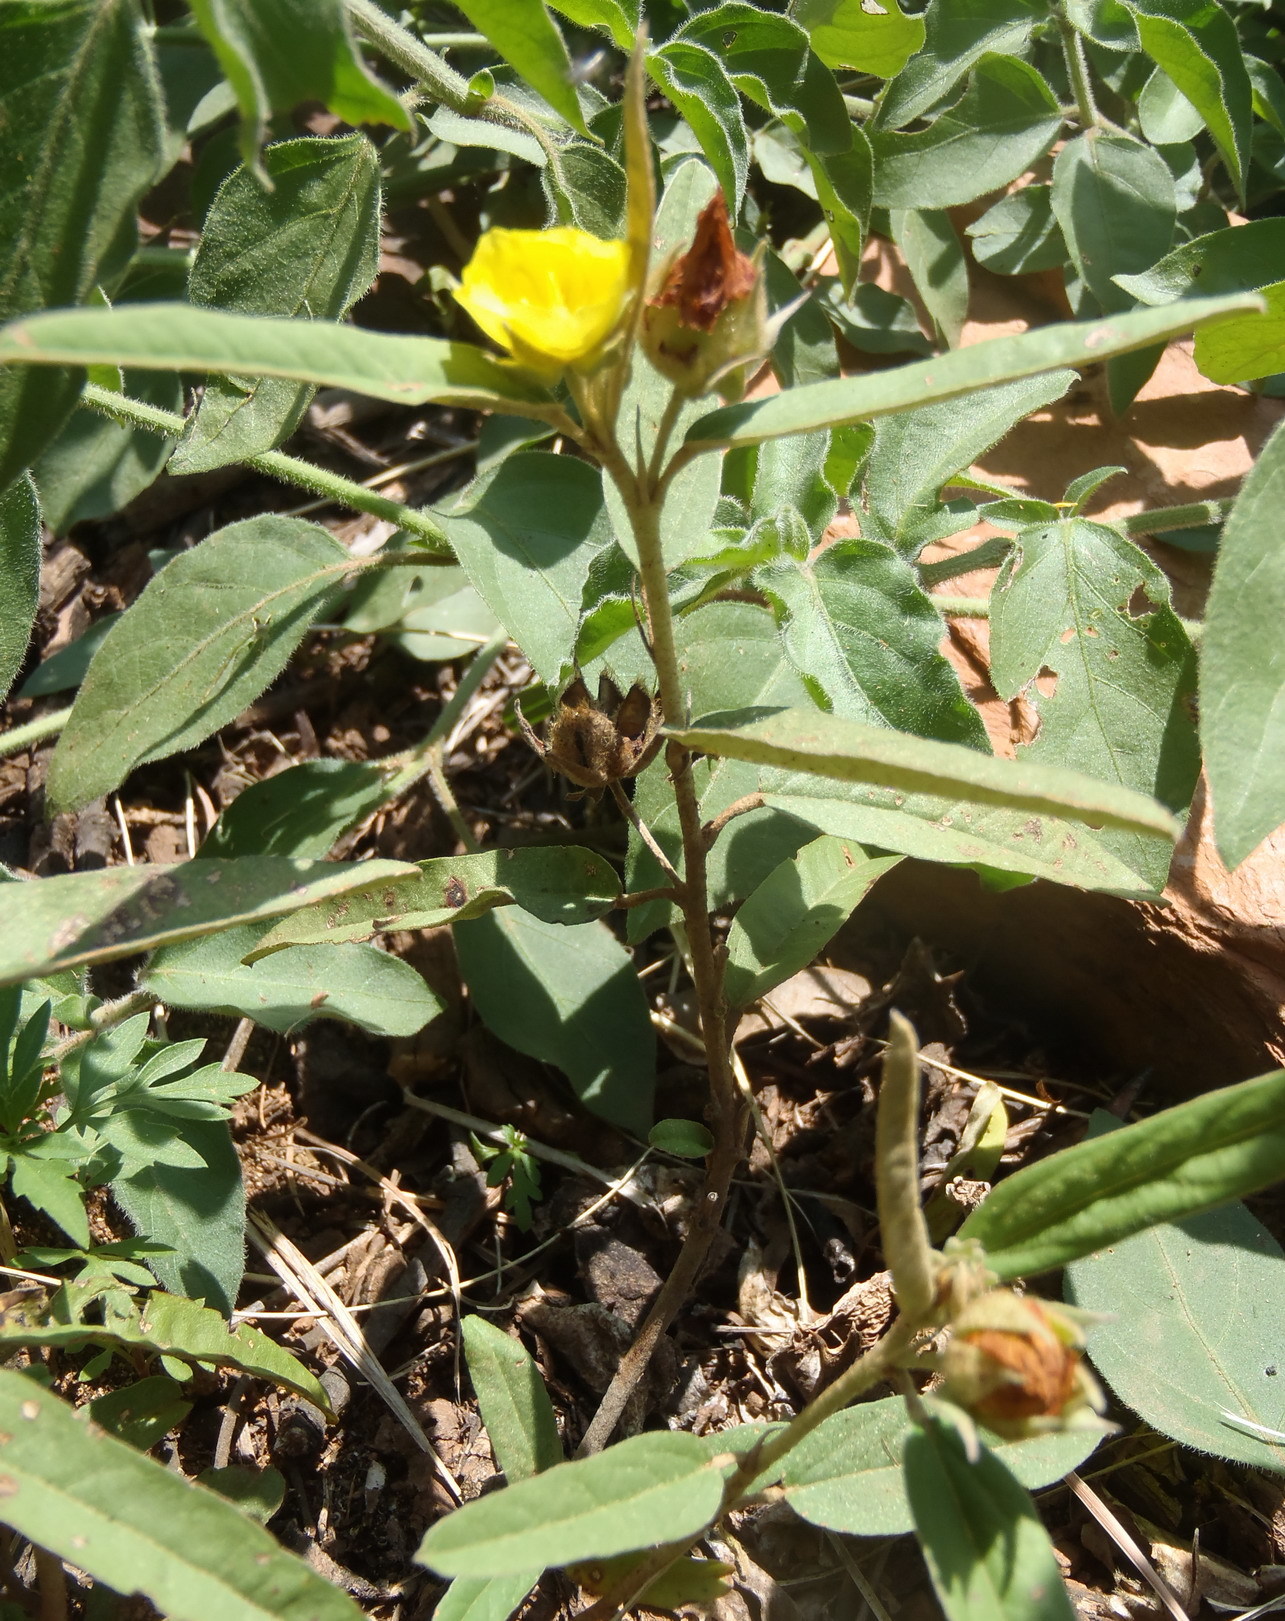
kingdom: Plantae
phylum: Tracheophyta
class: Magnoliopsida
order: Malvales
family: Malvaceae
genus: Melhania
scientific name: Melhania prostrata
